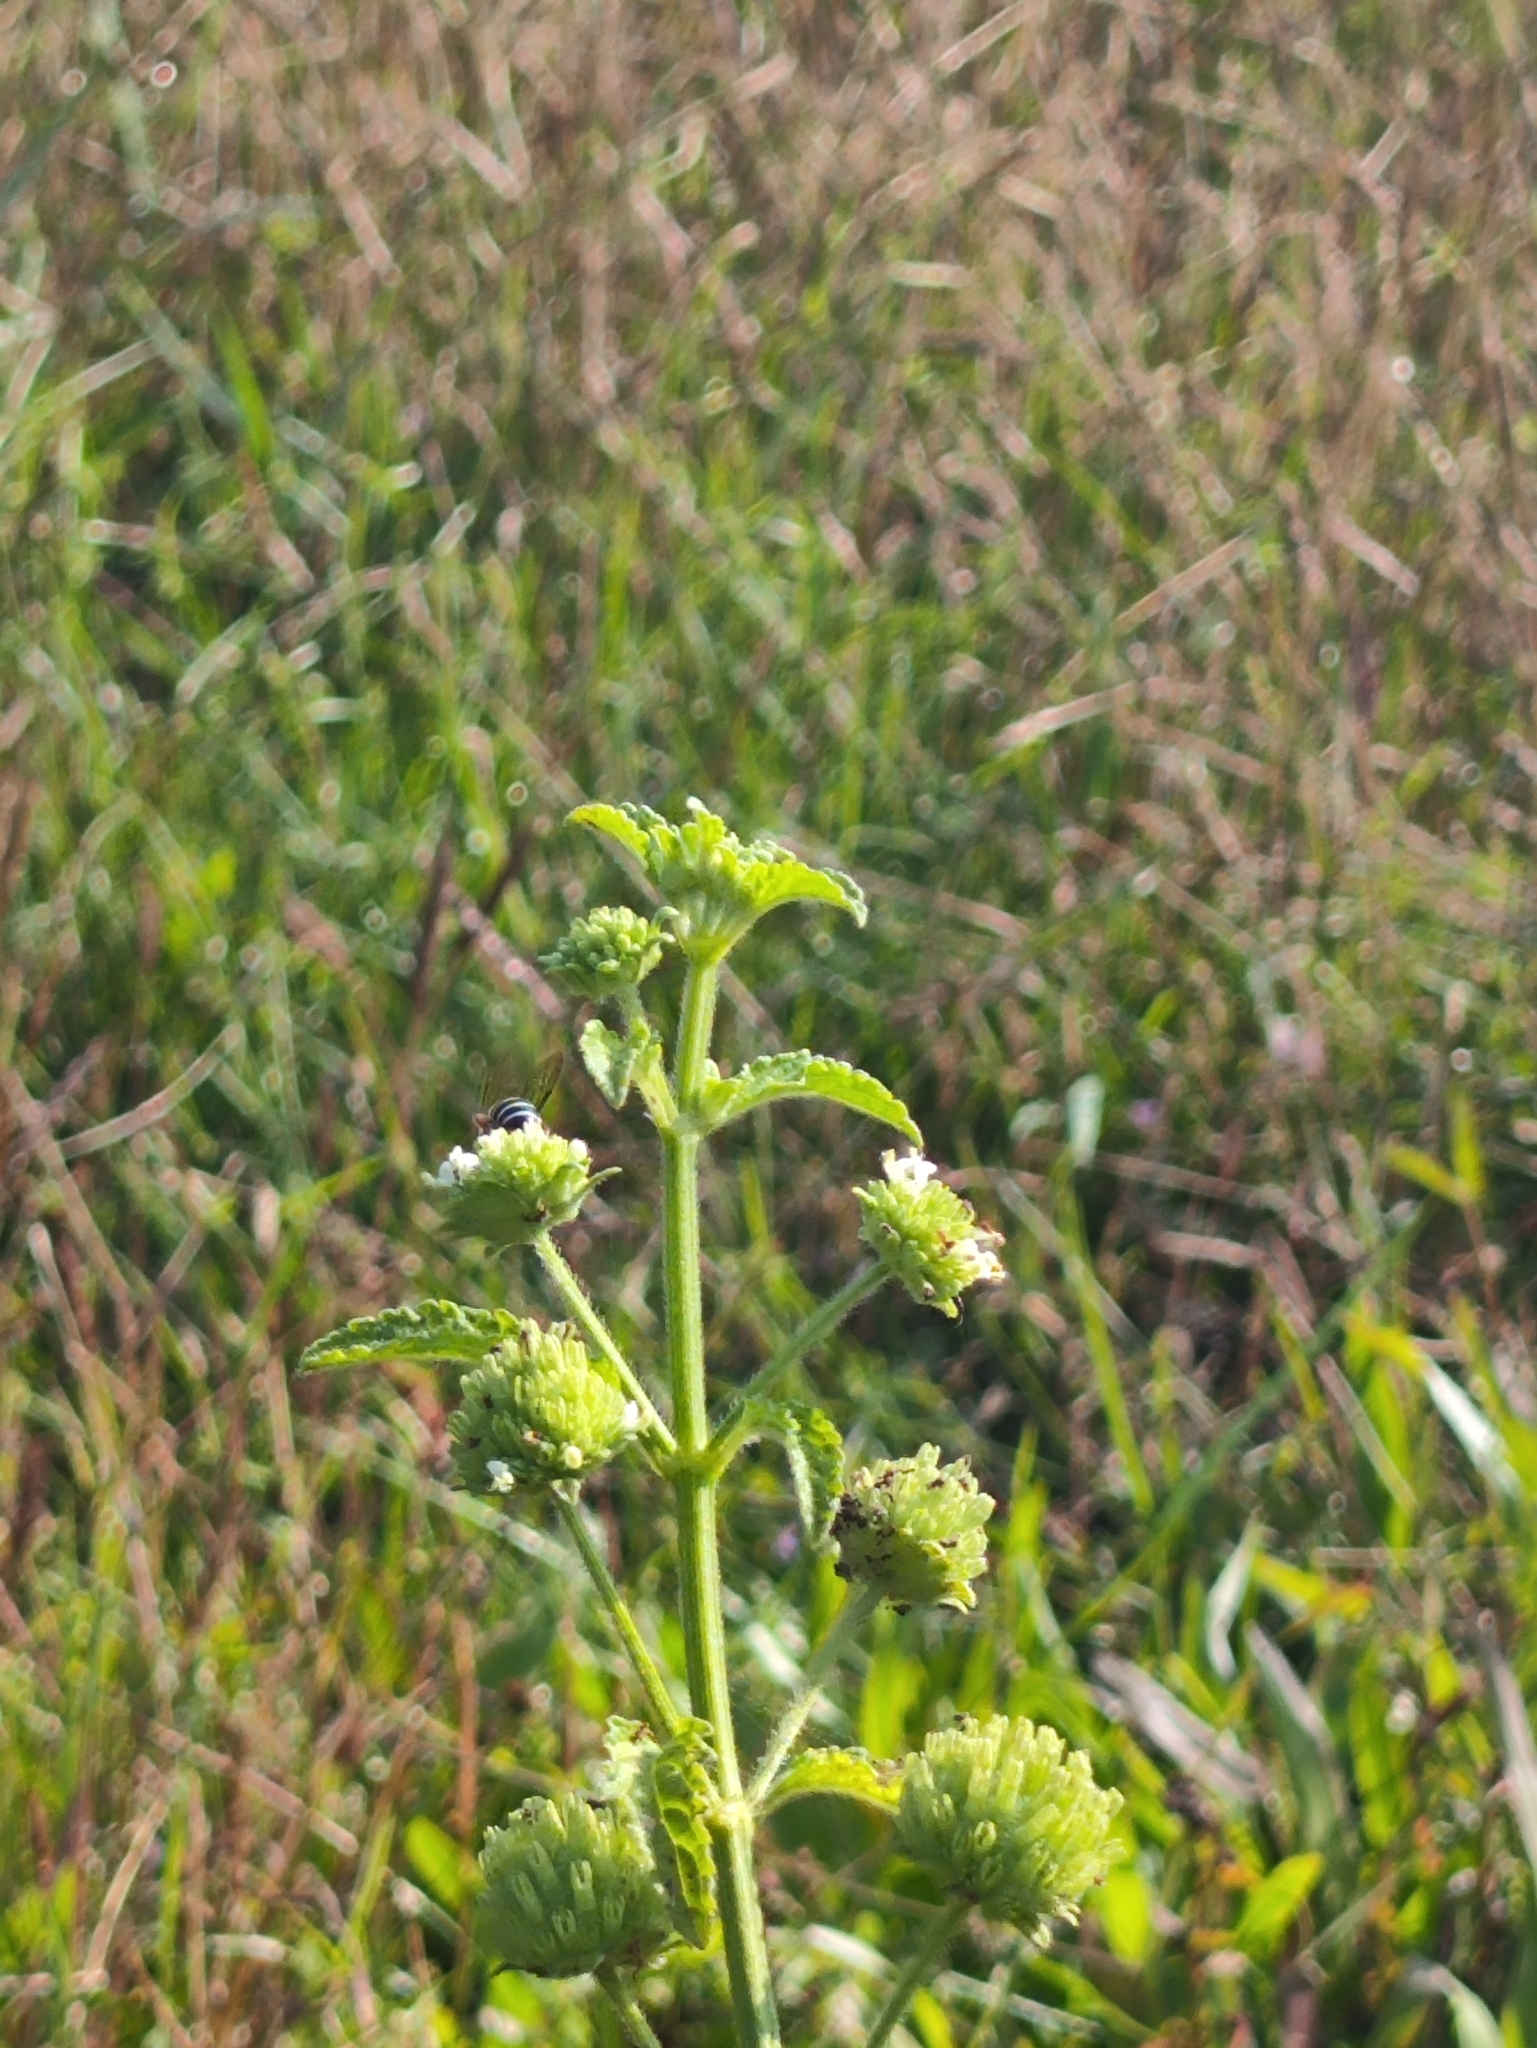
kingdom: Animalia
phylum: Arthropoda
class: Insecta
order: Hymenoptera
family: Halictidae
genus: Nomia
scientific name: Nomia westwoodi
